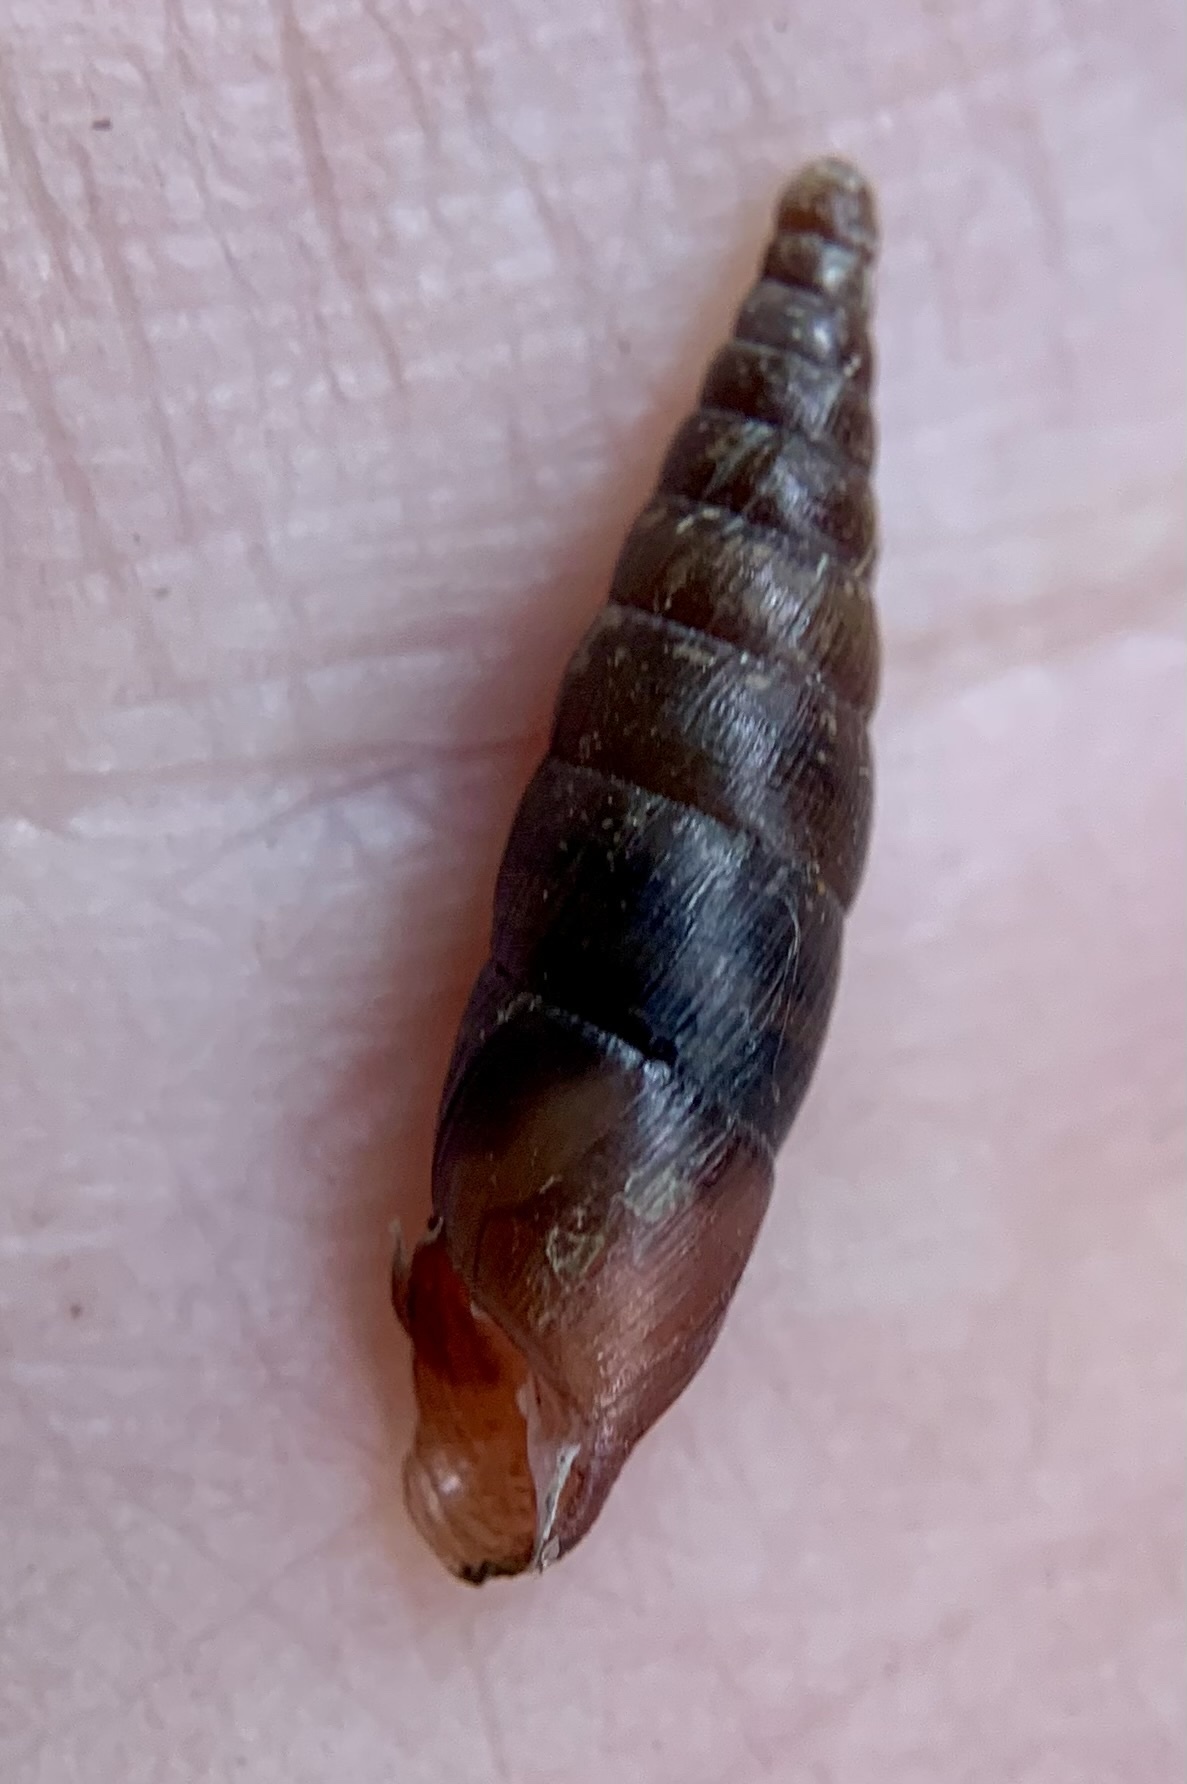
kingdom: Animalia
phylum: Mollusca
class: Gastropoda
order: Stylommatophora
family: Clausiliidae
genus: Cochlodina
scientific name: Cochlodina laminata
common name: Plaited door snail
